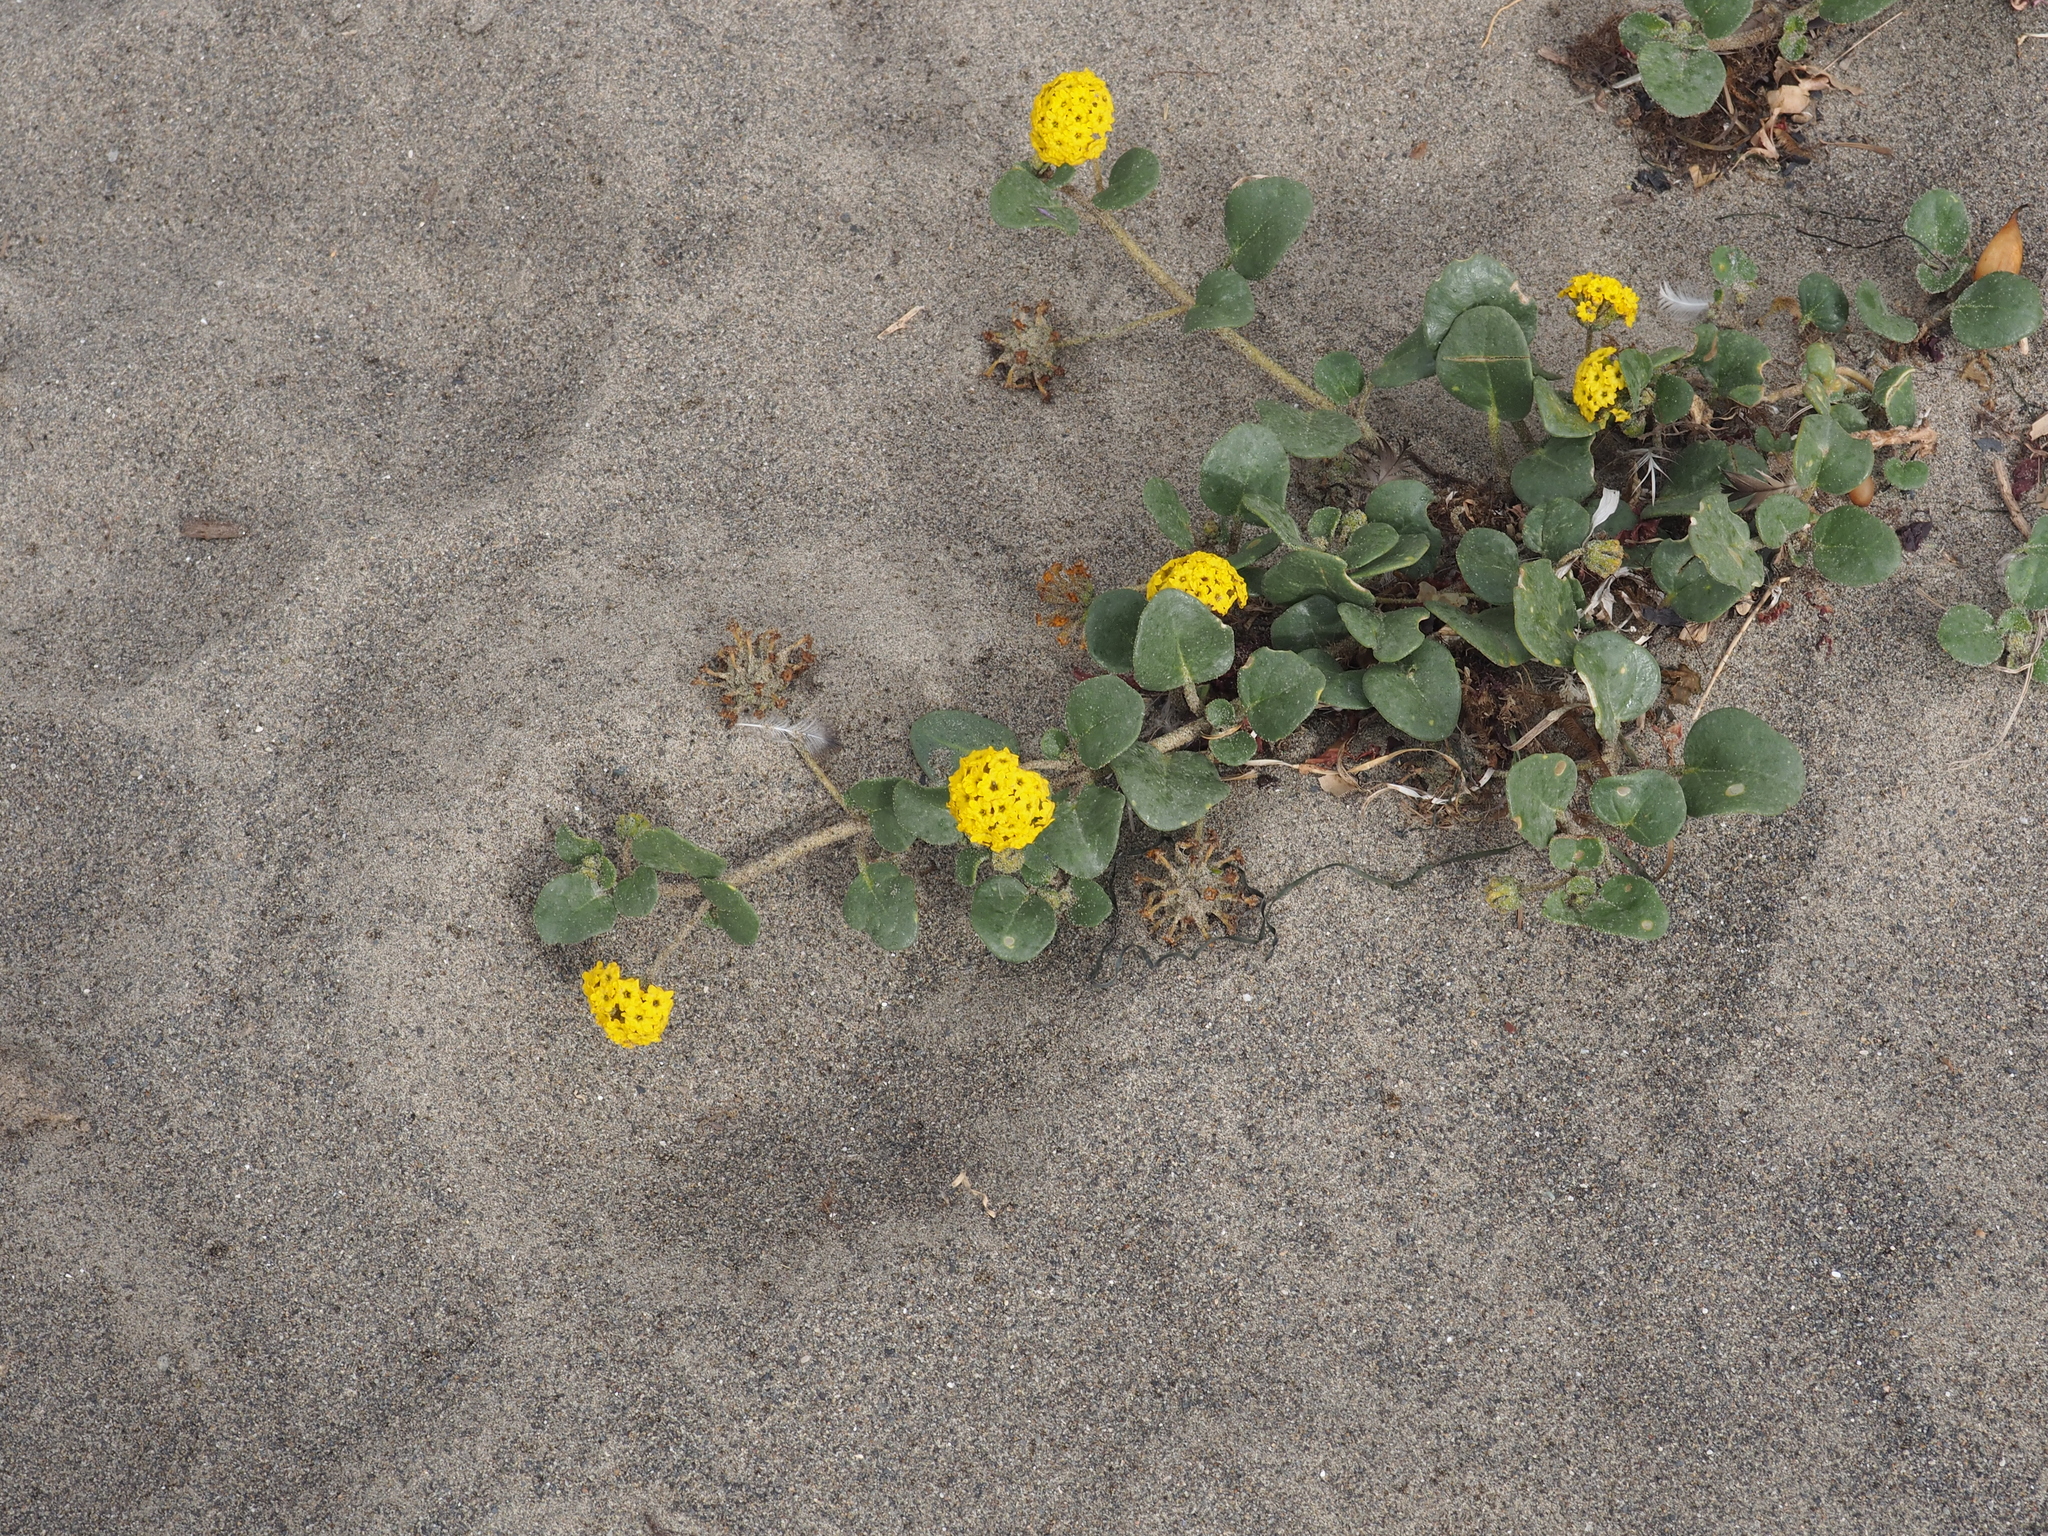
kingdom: Plantae
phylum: Tracheophyta
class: Magnoliopsida
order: Caryophyllales
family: Nyctaginaceae
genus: Abronia
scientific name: Abronia latifolia
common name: Yellow sand-verbena
